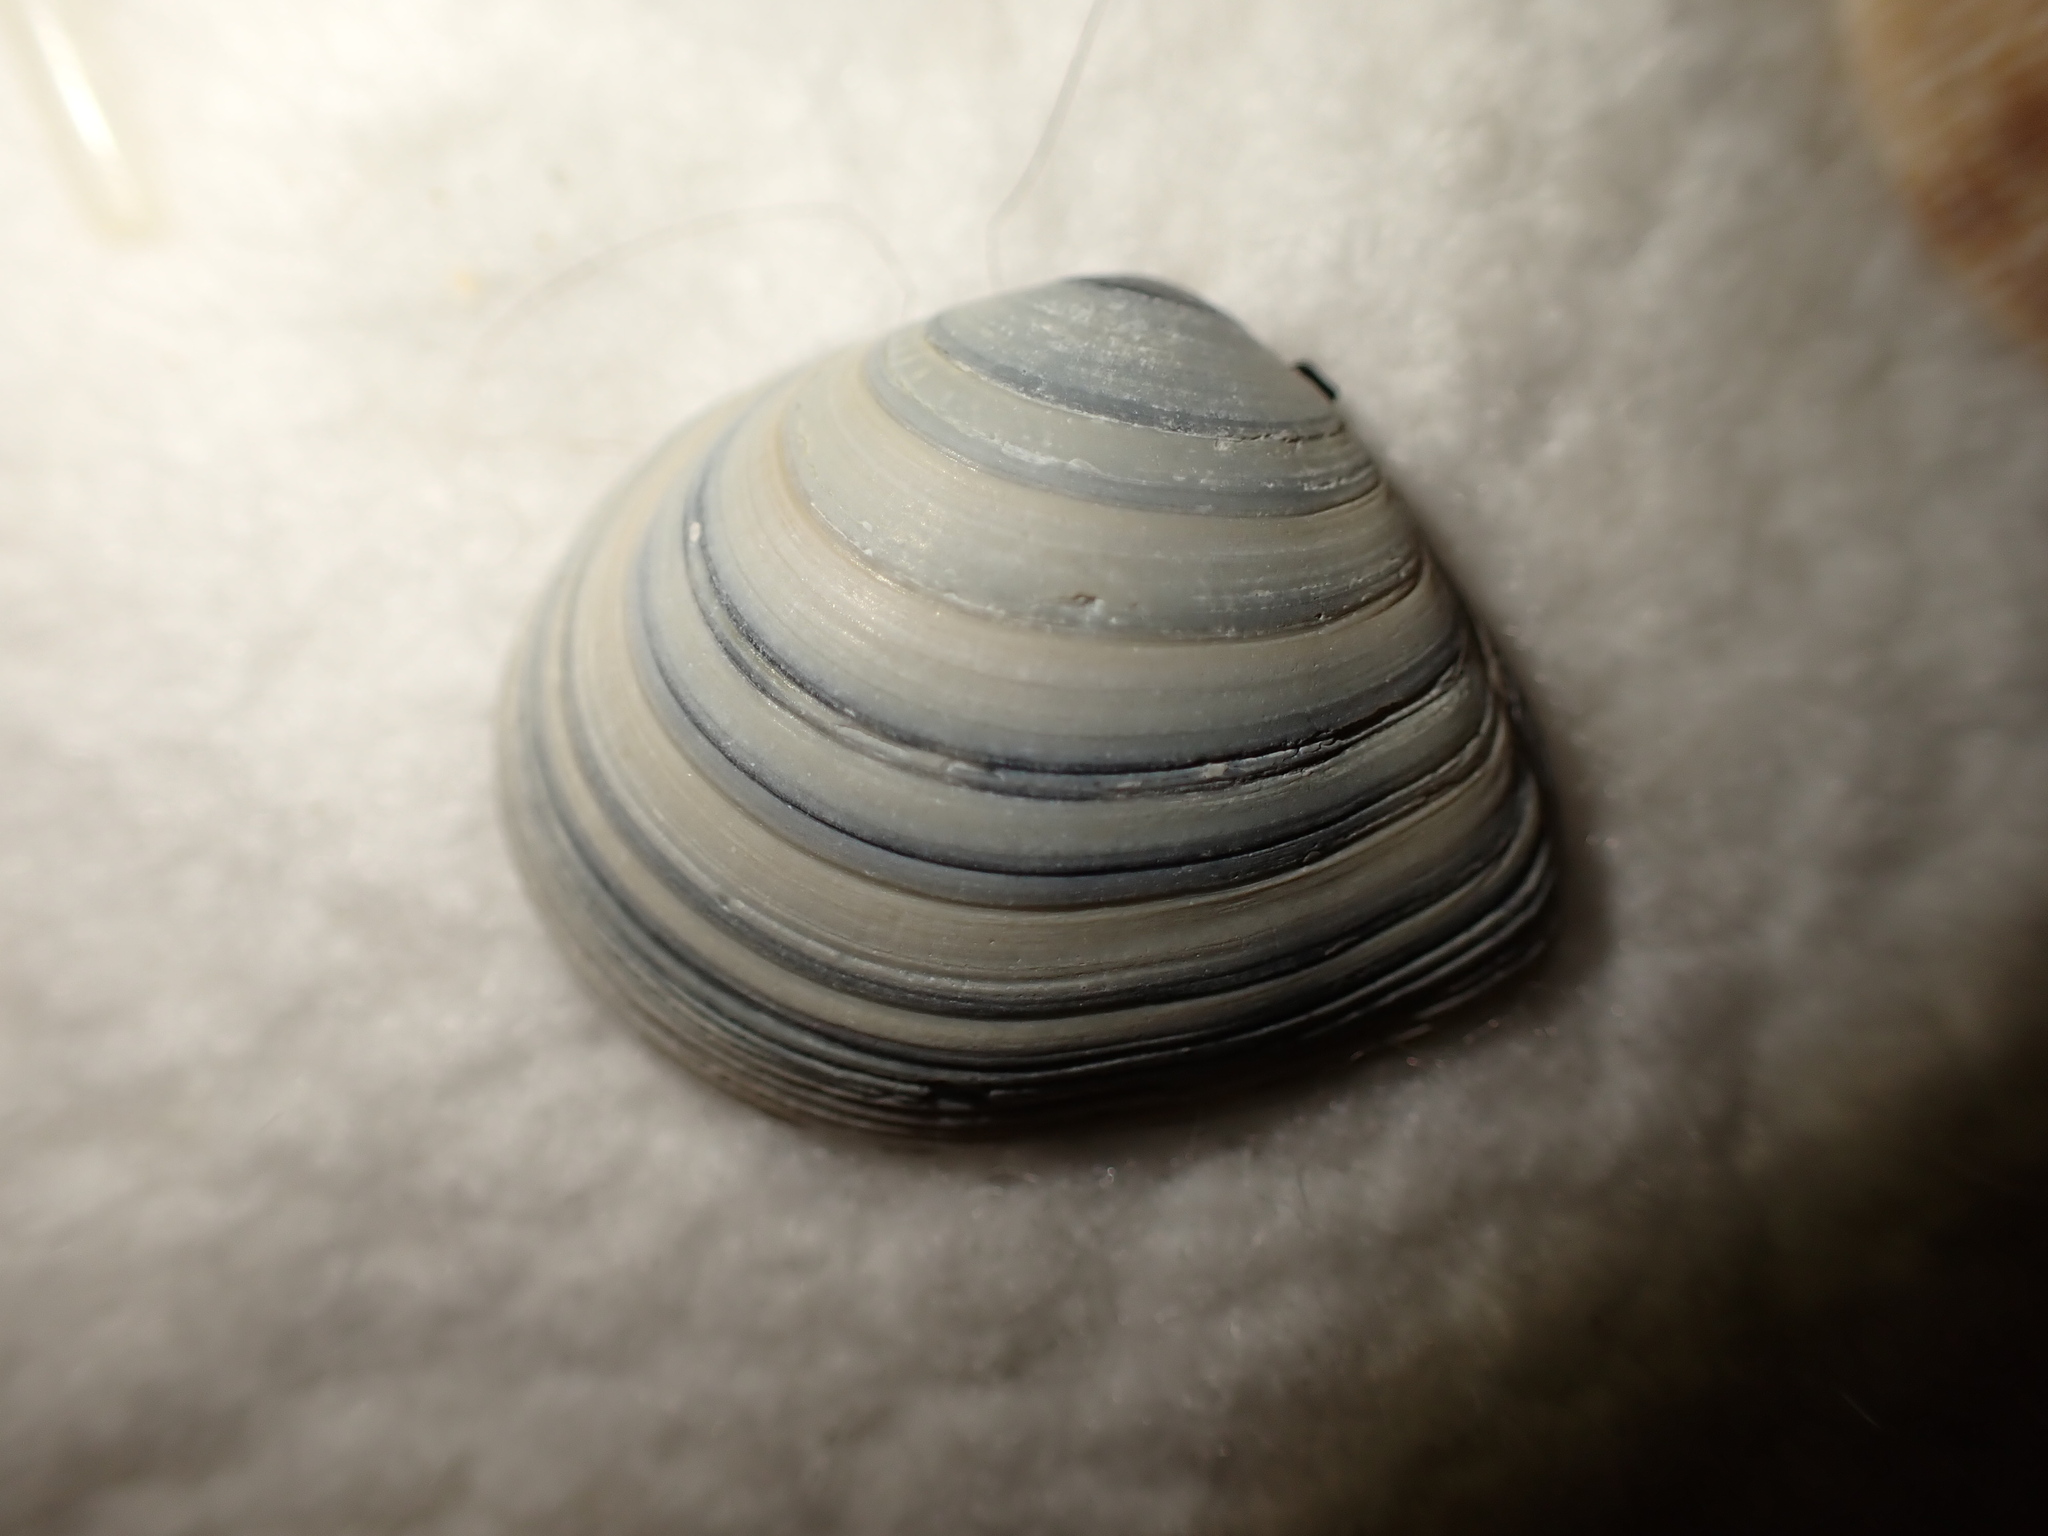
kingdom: Animalia
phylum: Mollusca
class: Bivalvia
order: Cardiida
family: Tellinidae
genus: Macoma
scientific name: Macoma balthica
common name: Baltic tellin
